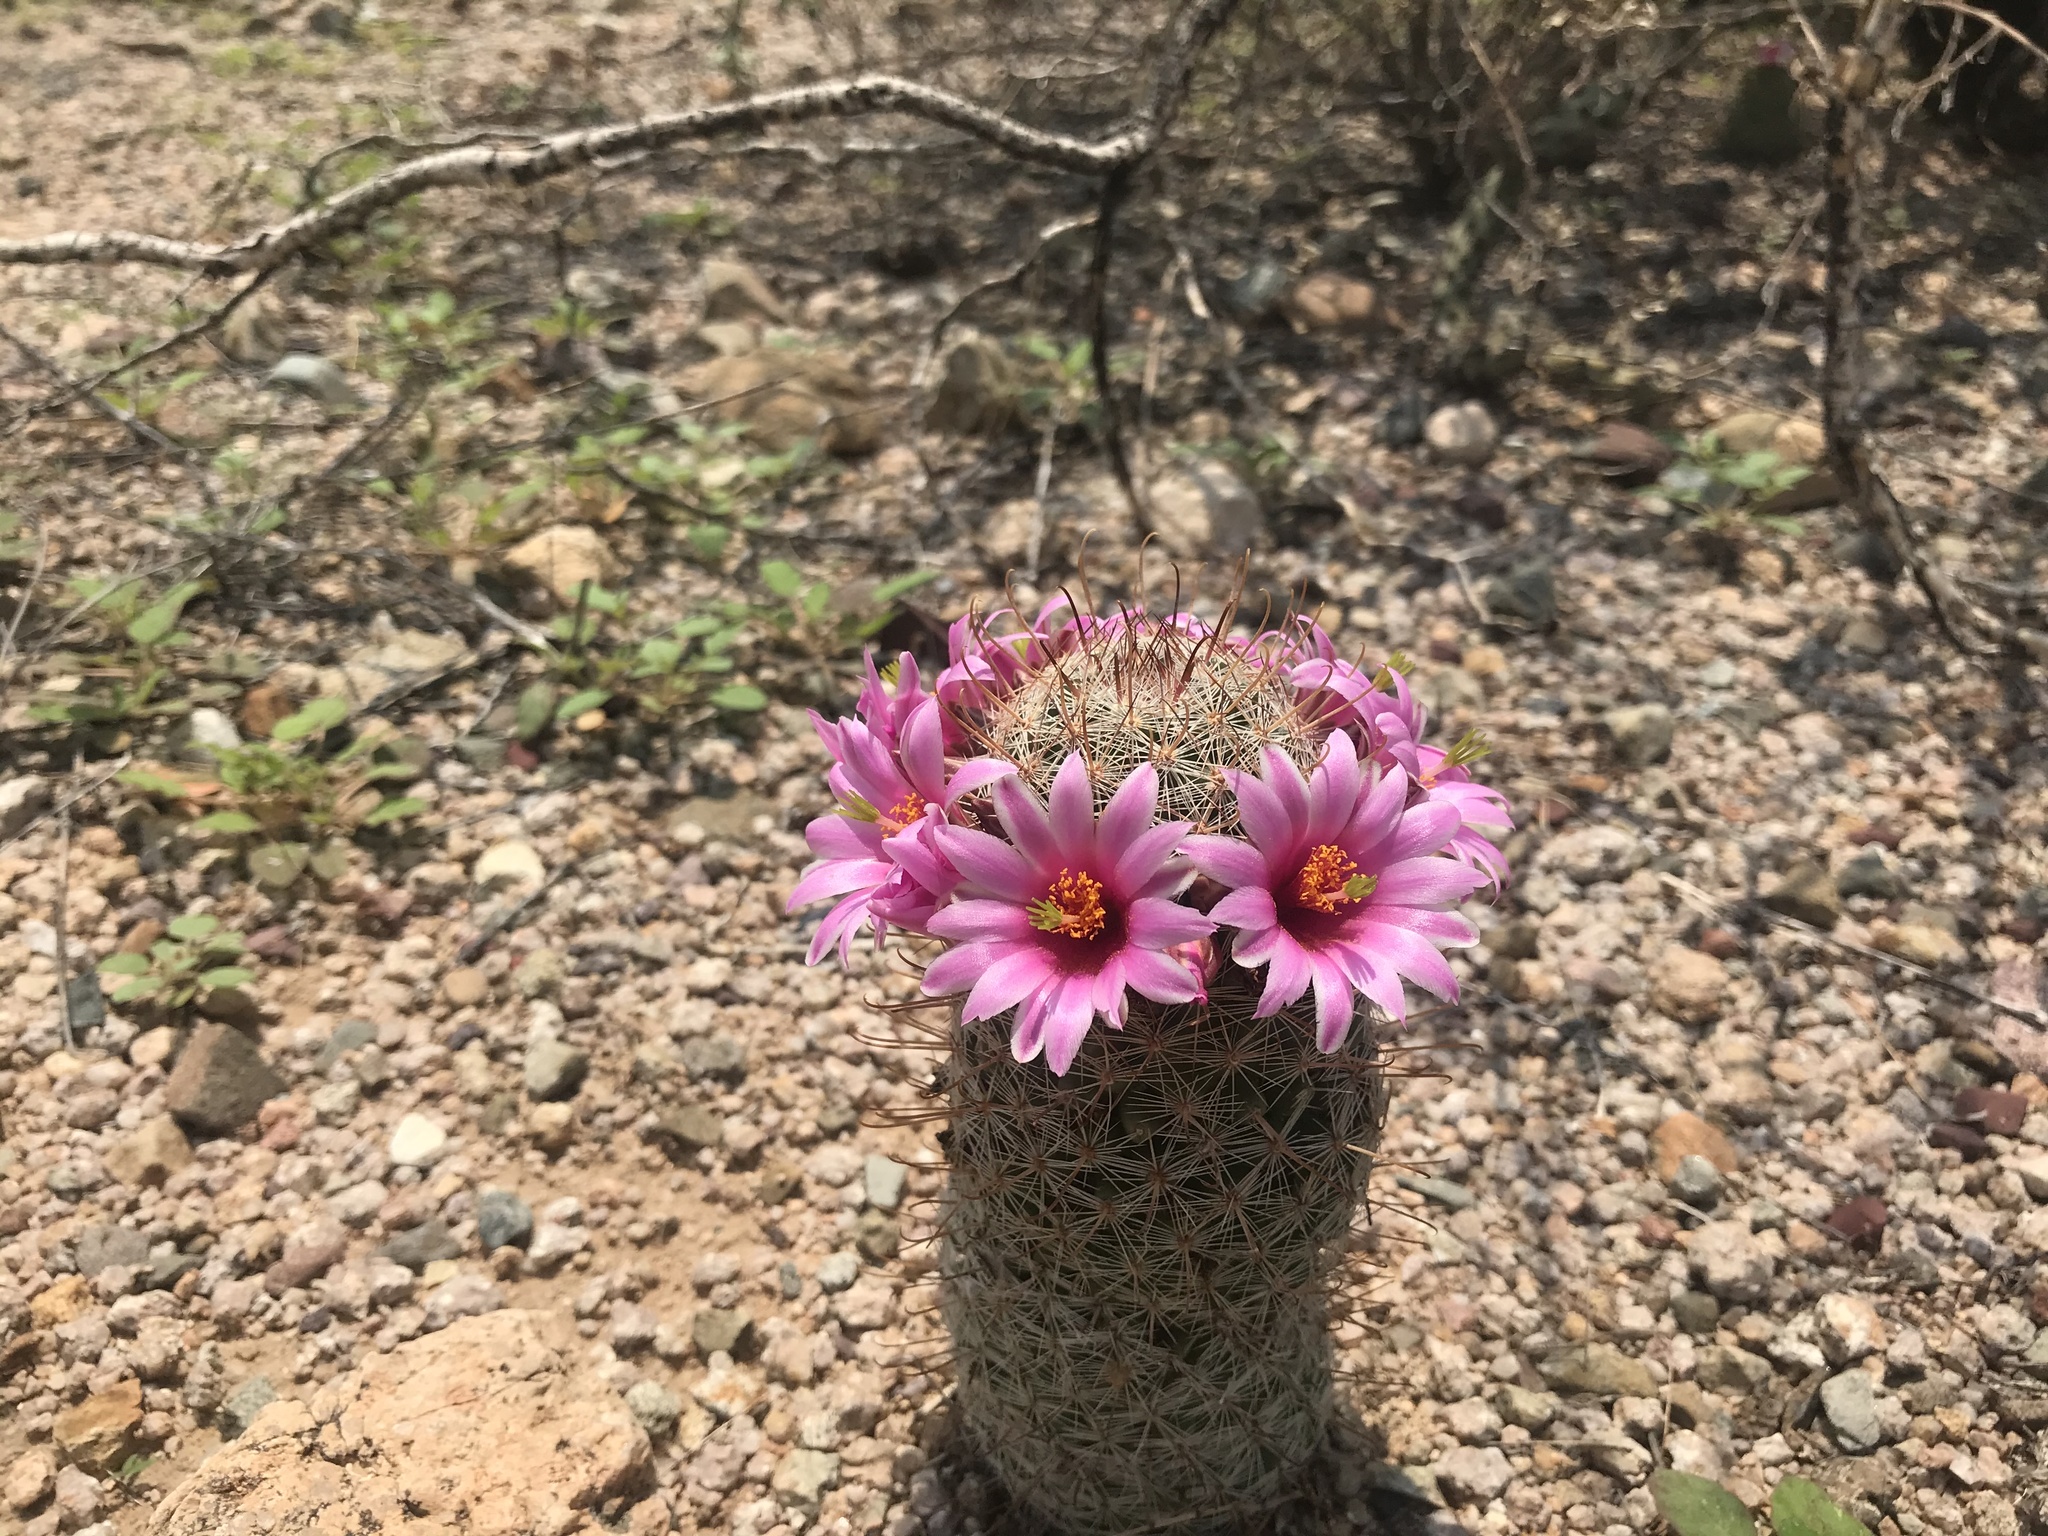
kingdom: Plantae
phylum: Tracheophyta
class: Magnoliopsida
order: Caryophyllales
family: Cactaceae
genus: Cochemiea
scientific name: Cochemiea grahamii
